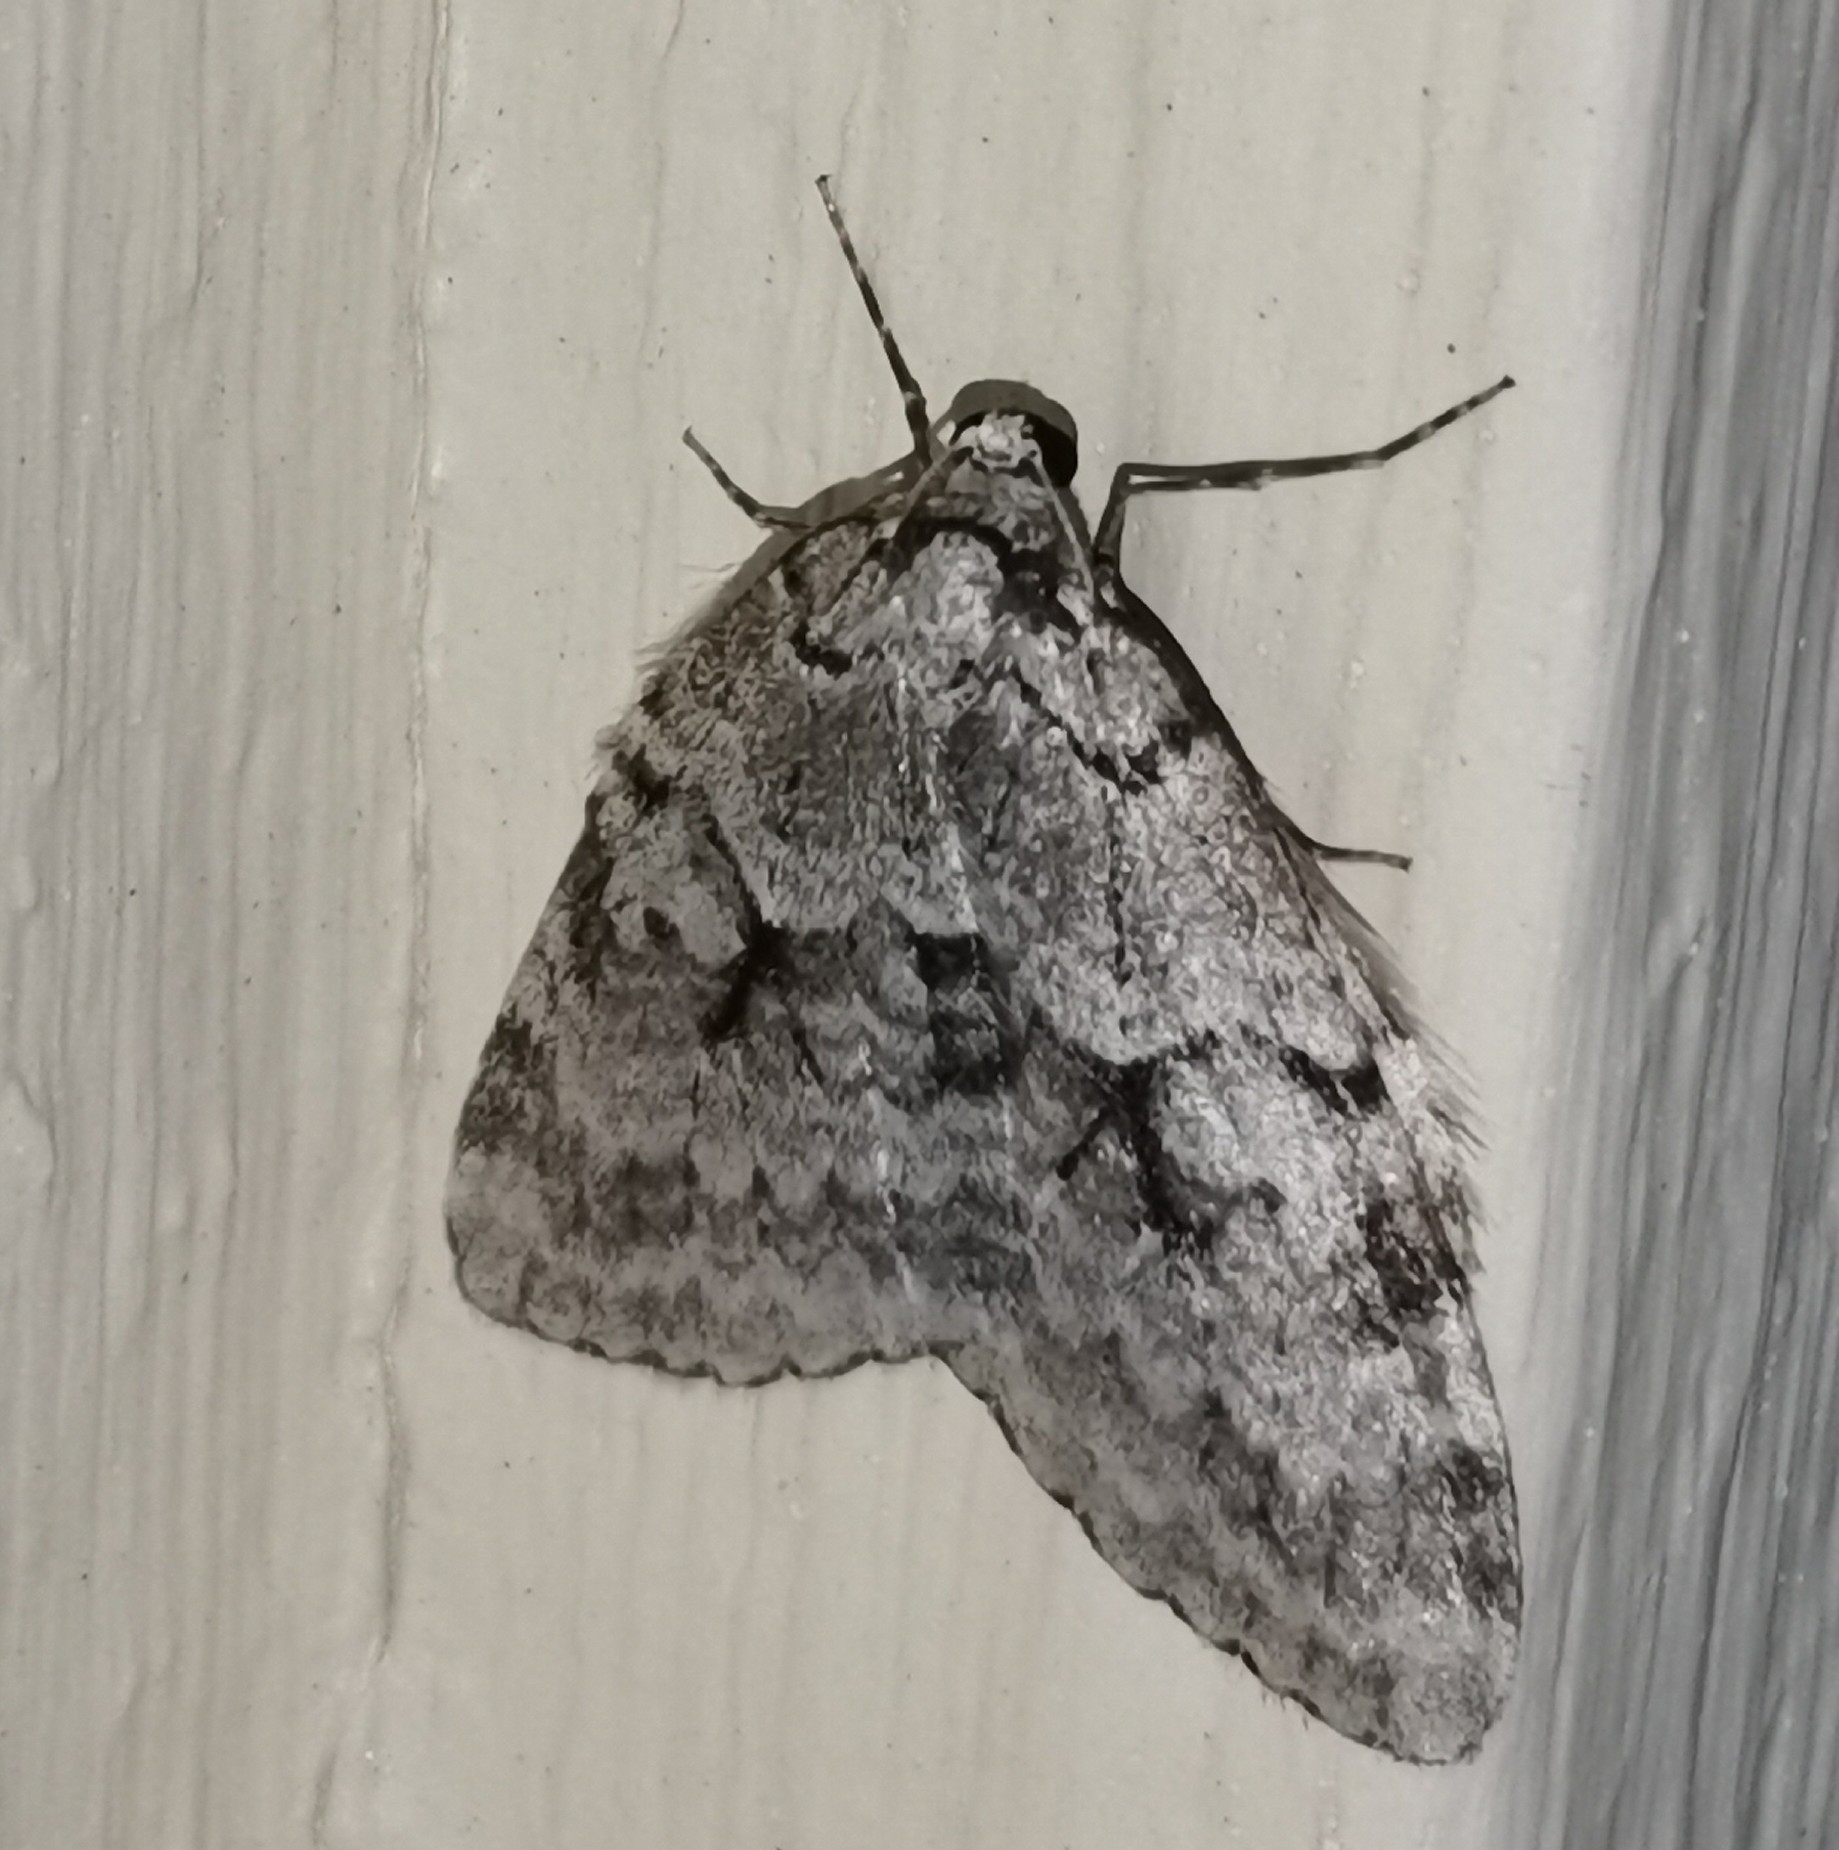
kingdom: Animalia
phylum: Arthropoda
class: Insecta
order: Lepidoptera
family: Geometridae
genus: Epirrita
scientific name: Epirrita autumnata
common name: Autumnal moth
